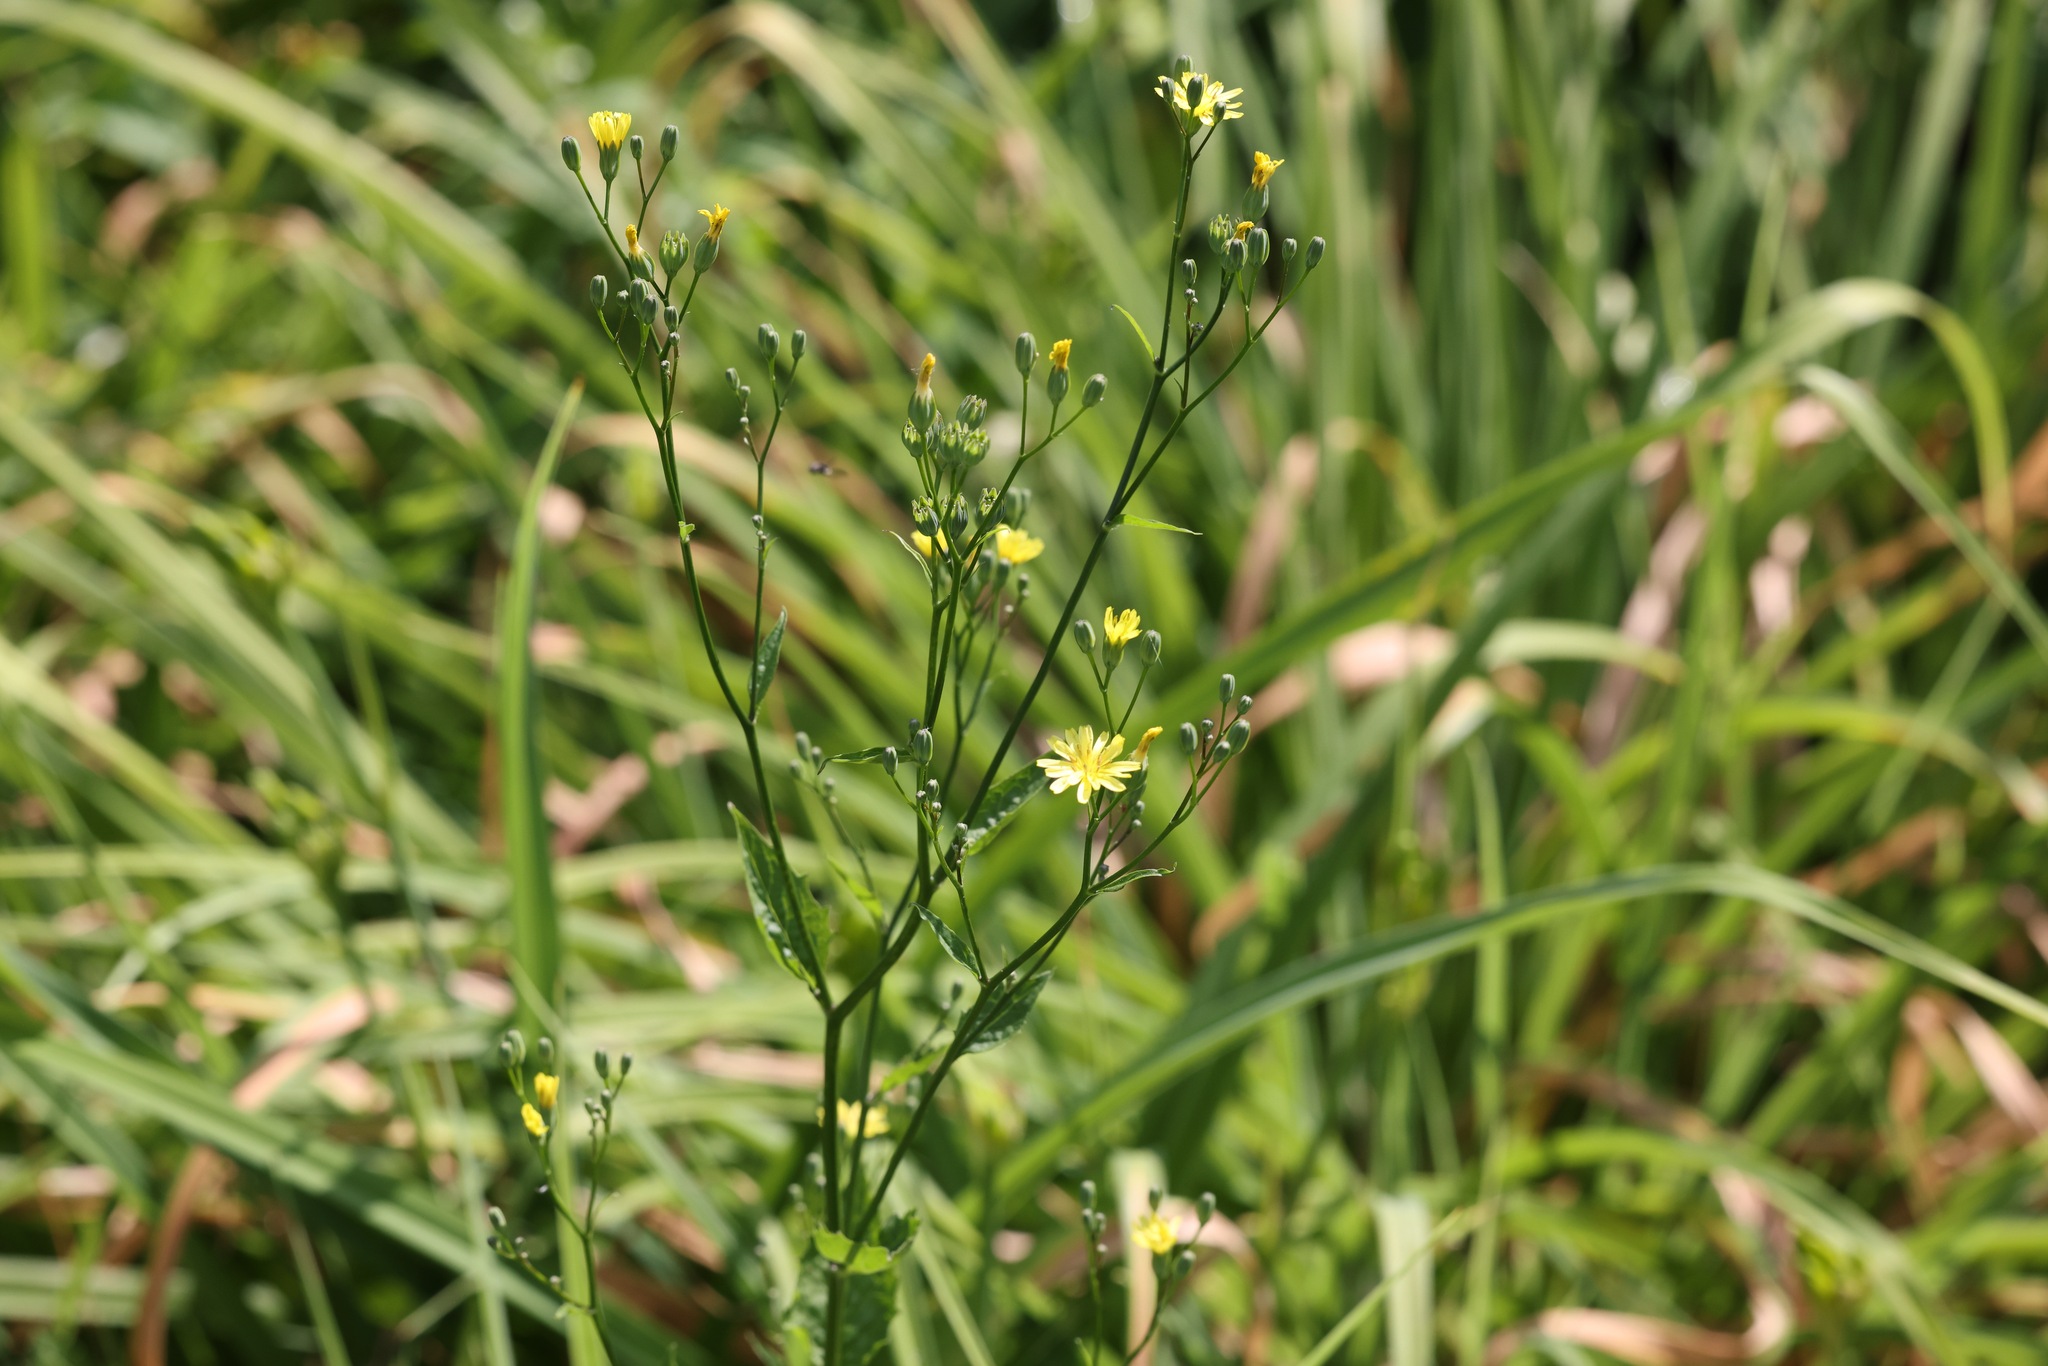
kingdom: Plantae
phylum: Tracheophyta
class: Magnoliopsida
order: Asterales
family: Asteraceae
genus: Lapsana
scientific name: Lapsana communis
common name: Nipplewort
